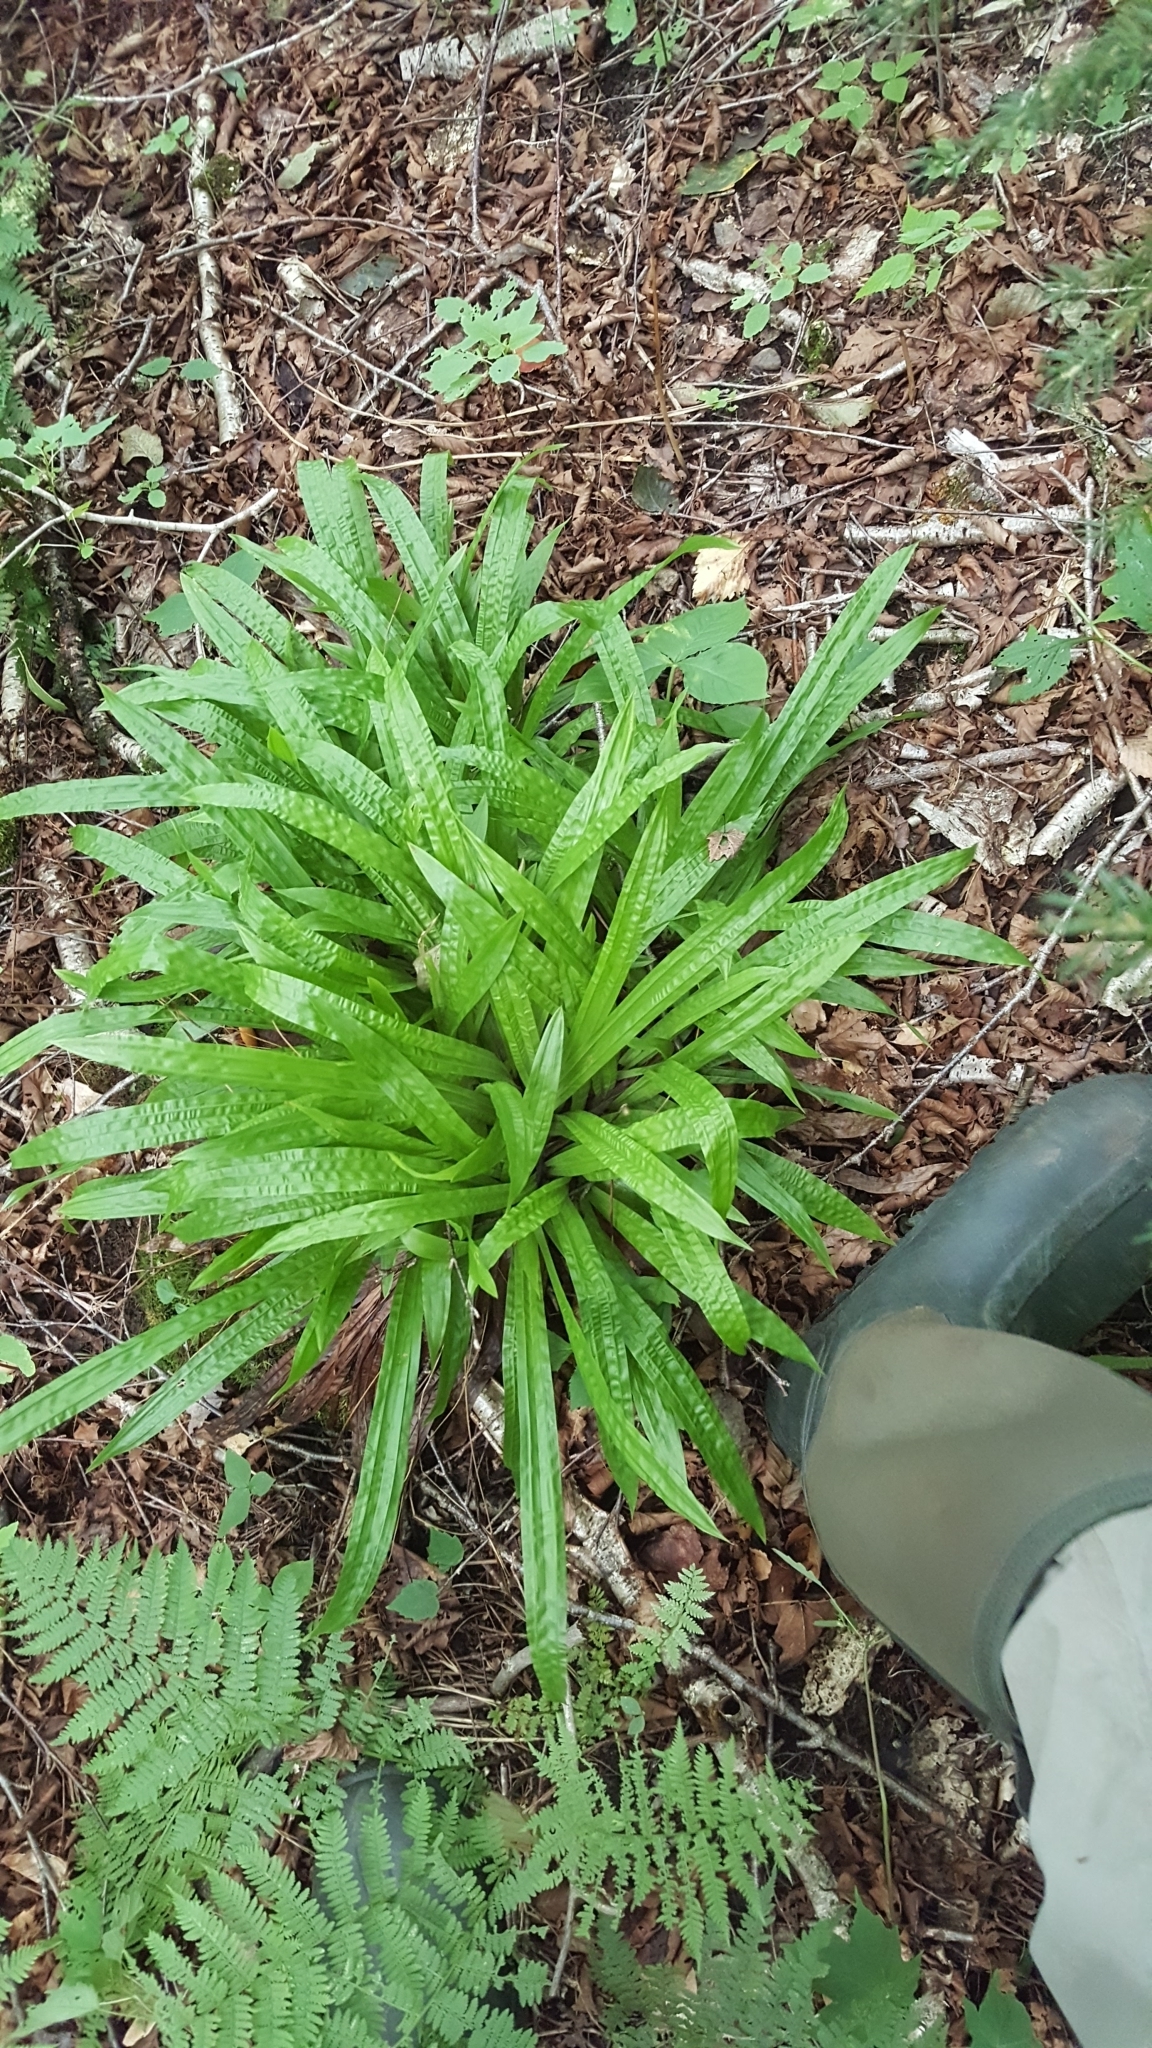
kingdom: Plantae
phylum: Tracheophyta
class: Liliopsida
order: Poales
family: Cyperaceae
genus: Carex
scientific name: Carex plantaginea
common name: Plantain-leaved sedge
